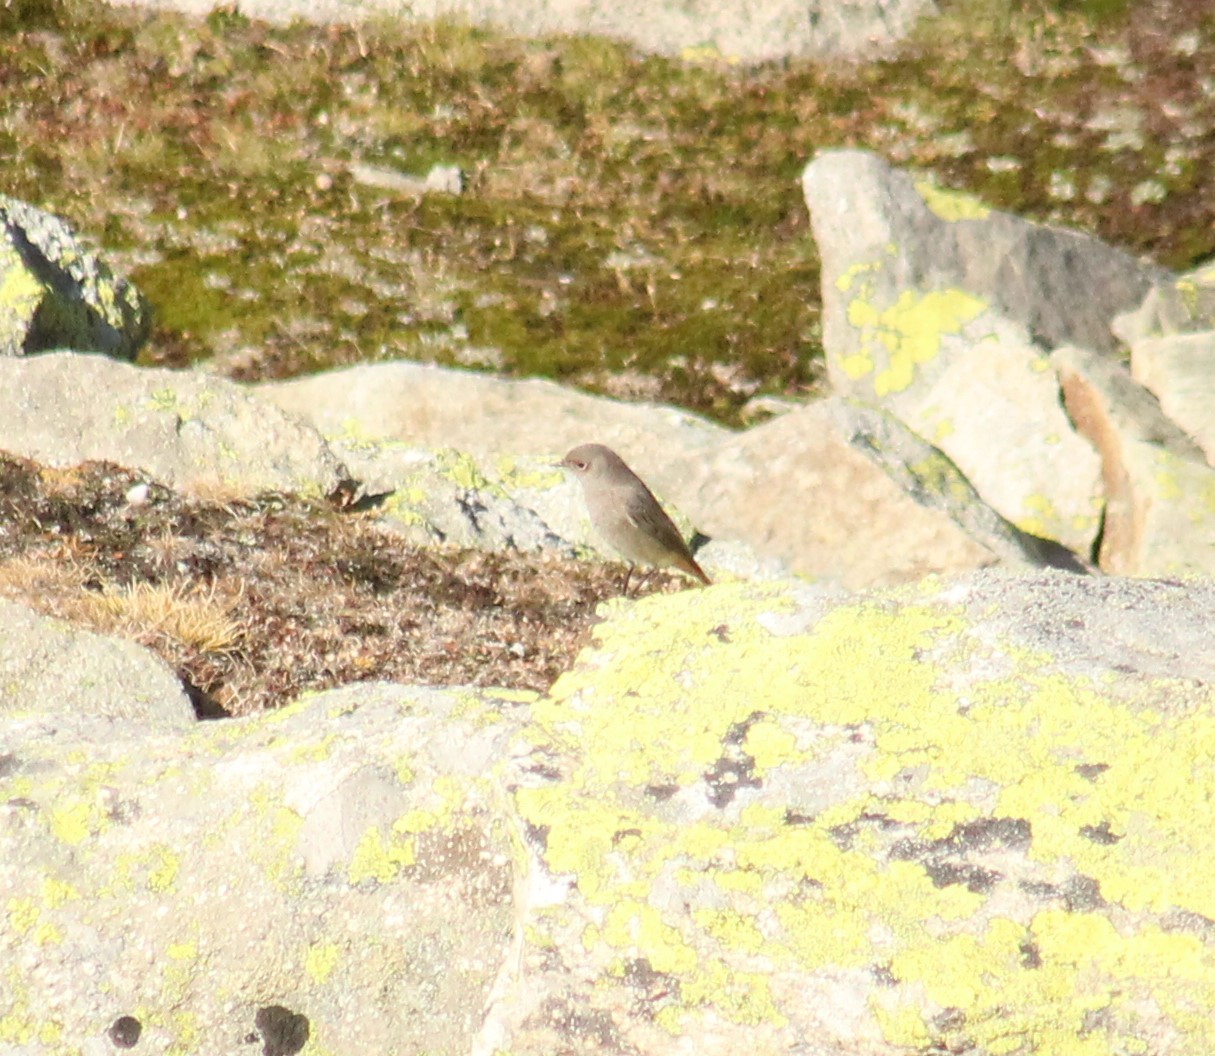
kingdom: Animalia
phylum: Chordata
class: Aves
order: Passeriformes
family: Muscicapidae
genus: Phoenicurus
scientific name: Phoenicurus ochruros
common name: Black redstart
